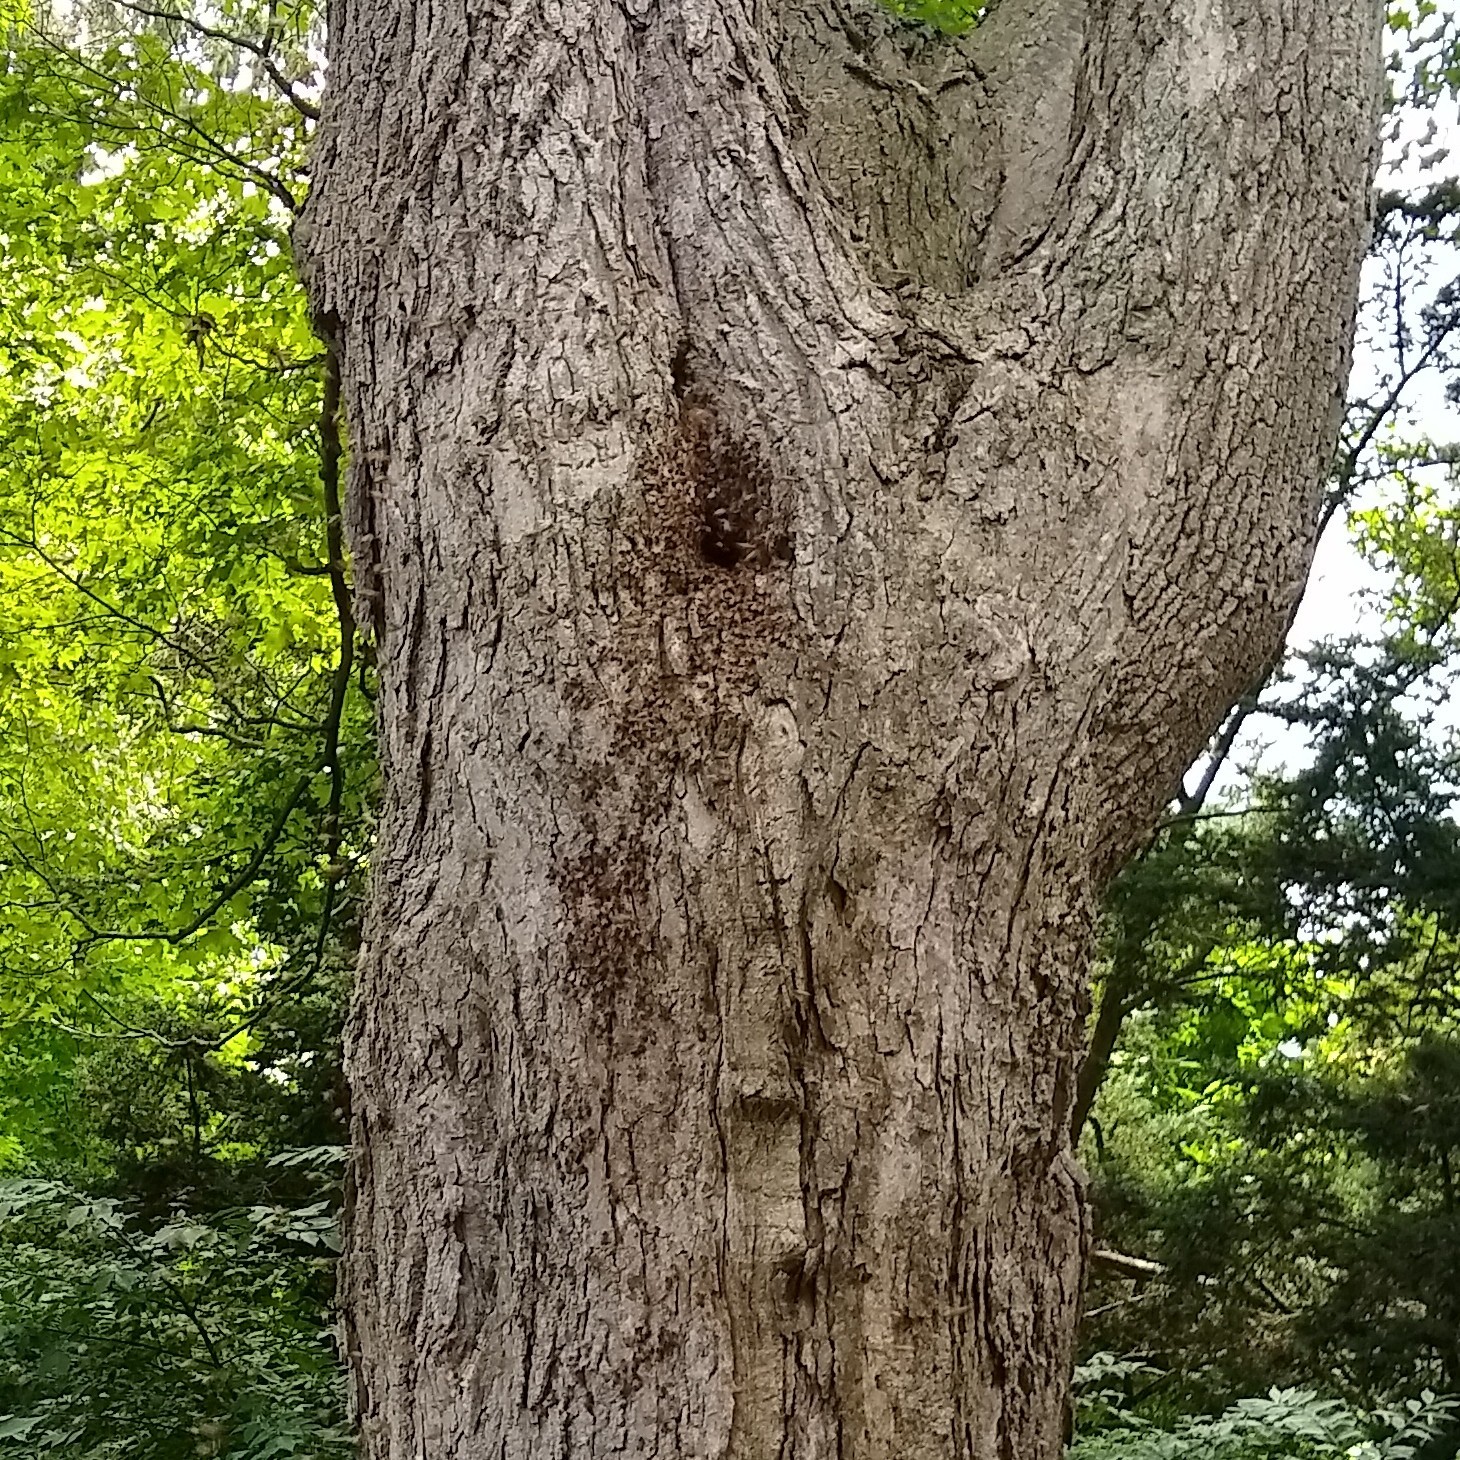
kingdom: Animalia
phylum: Arthropoda
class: Insecta
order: Hymenoptera
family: Apidae
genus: Apis
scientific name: Apis mellifera
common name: Honey bee
